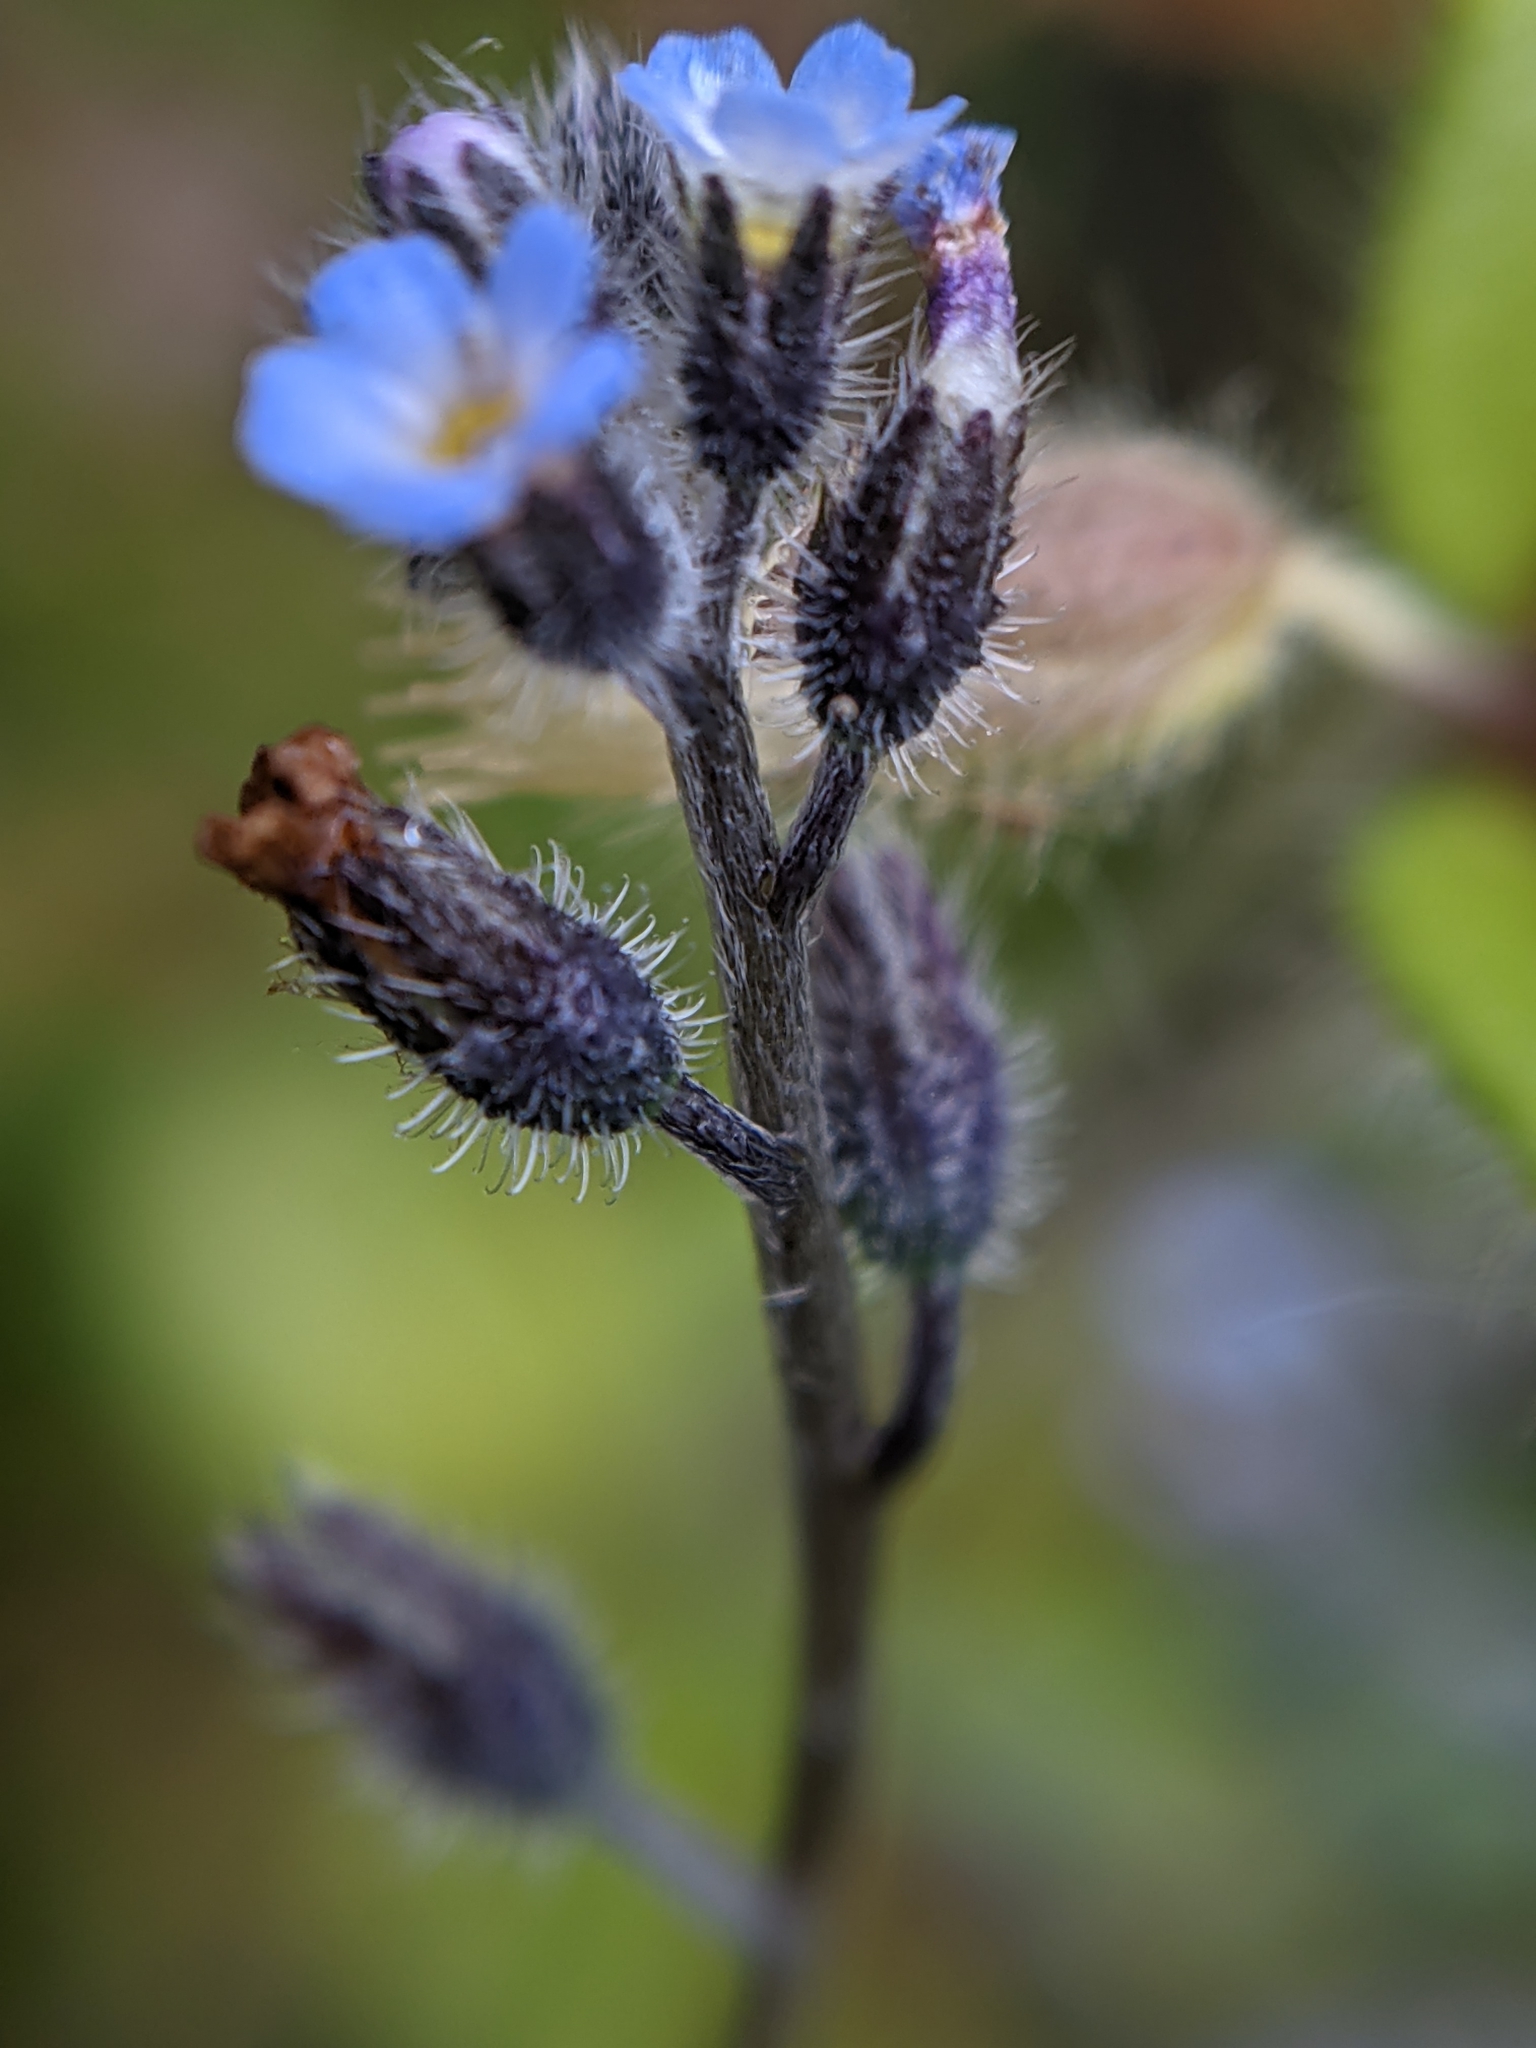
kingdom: Plantae
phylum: Tracheophyta
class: Magnoliopsida
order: Boraginales
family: Boraginaceae
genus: Myosotis
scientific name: Myosotis ramosissima
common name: Early forget-me-not
